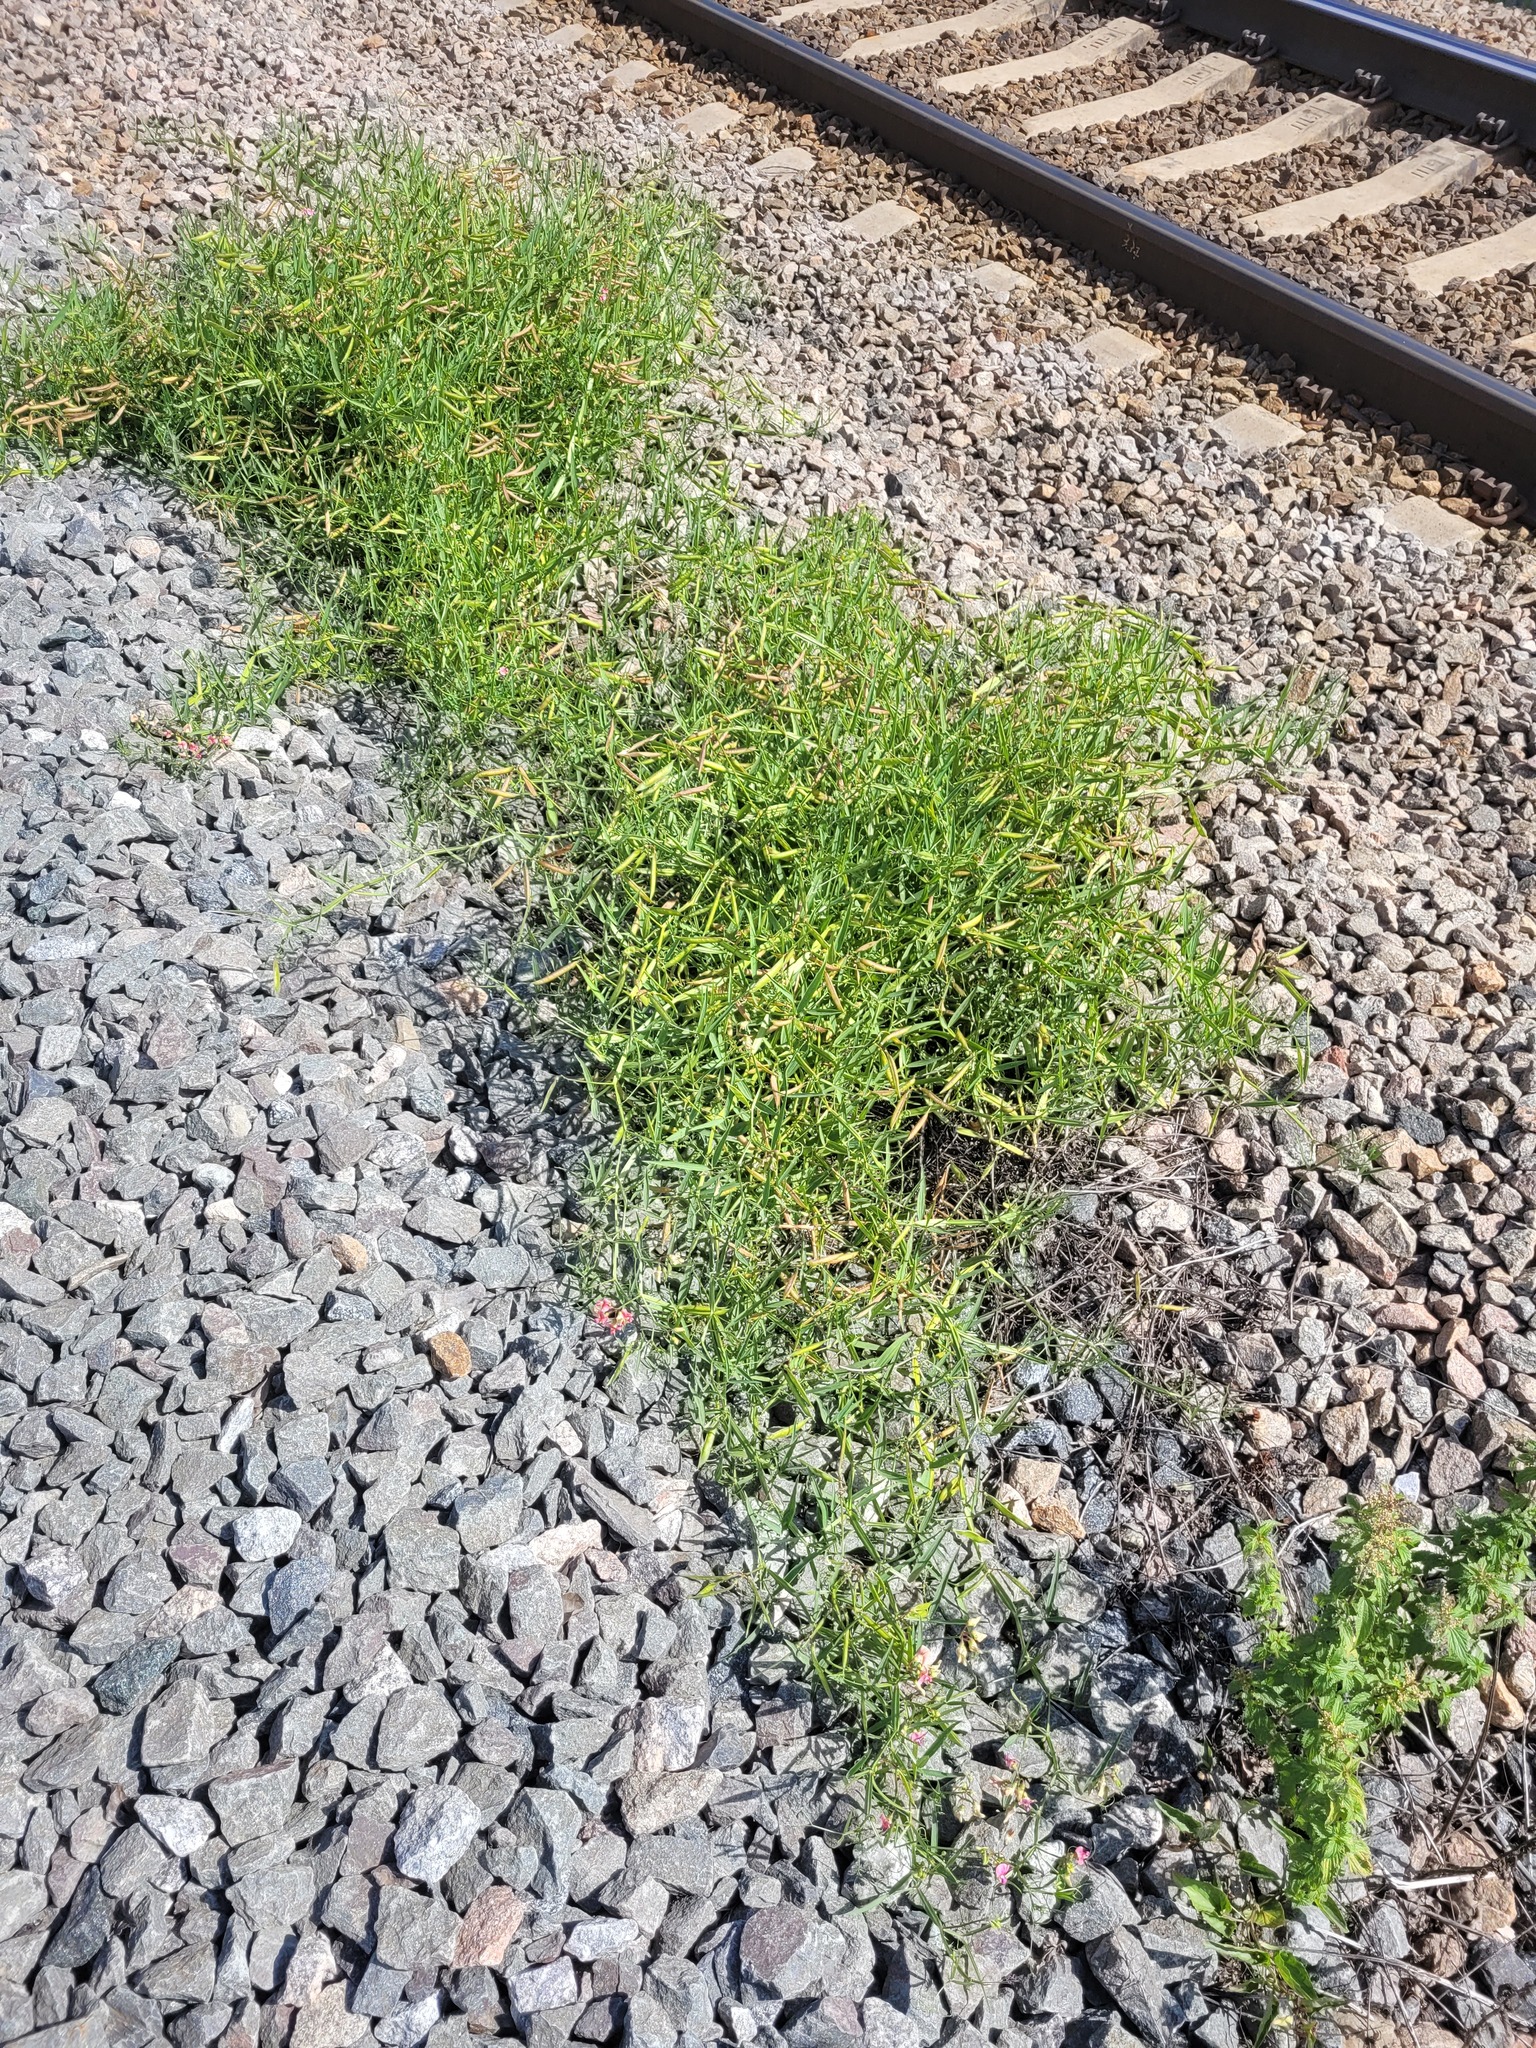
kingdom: Plantae
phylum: Tracheophyta
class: Magnoliopsida
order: Fabales
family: Fabaceae
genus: Lathyrus
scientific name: Lathyrus sylvestris
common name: Flat pea
